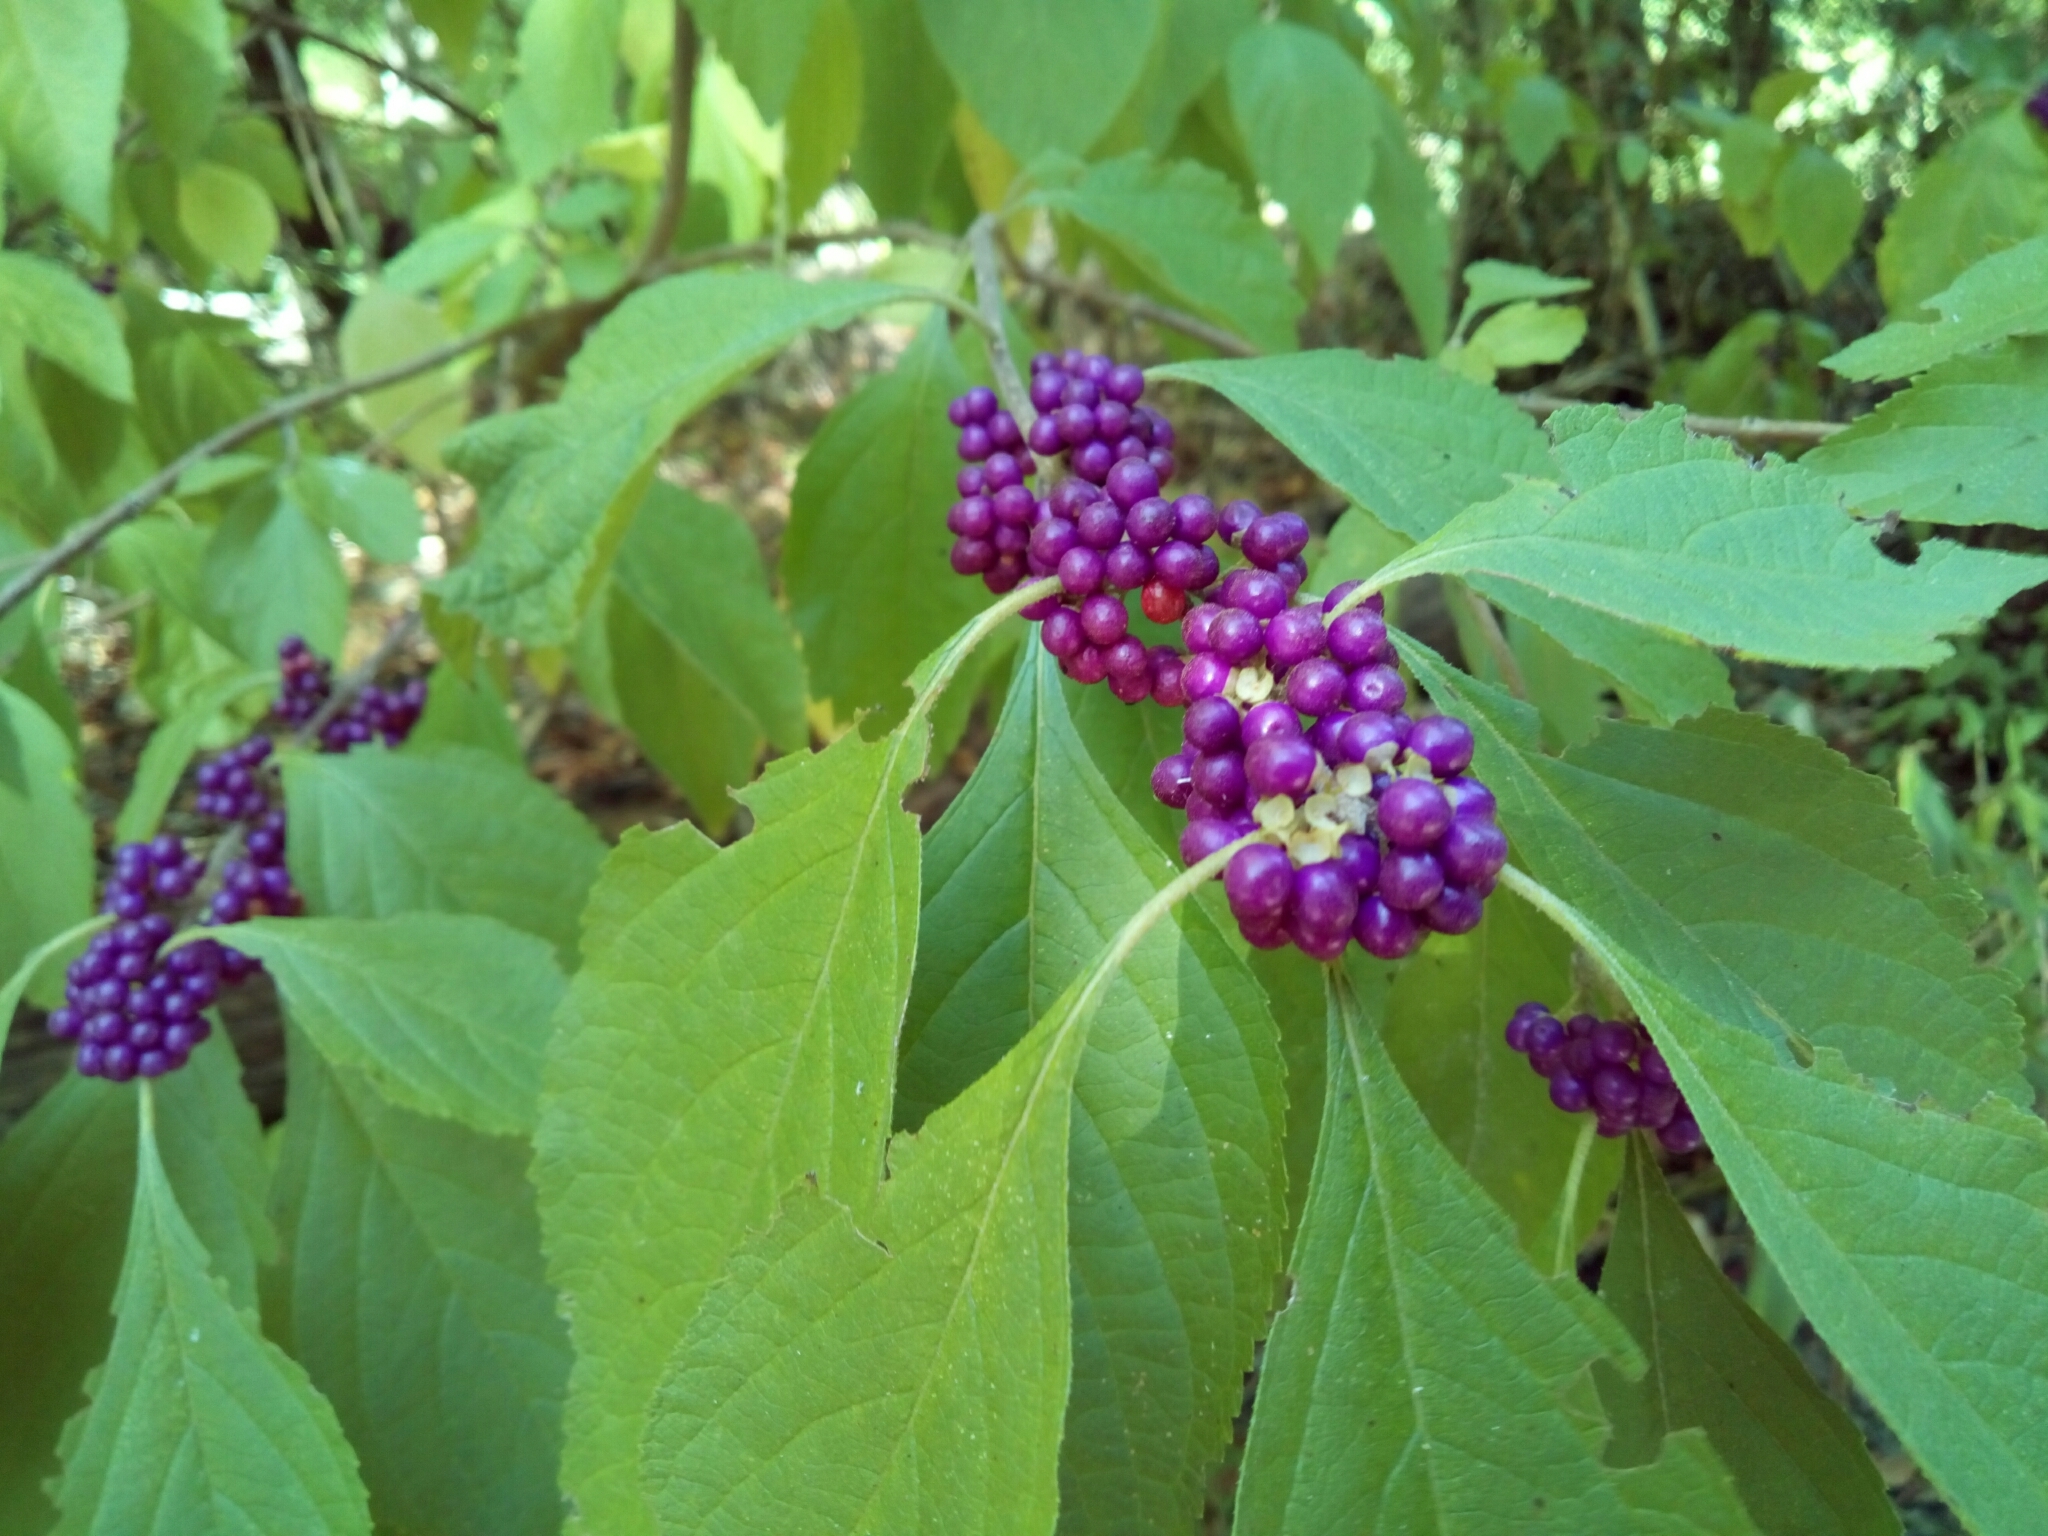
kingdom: Plantae
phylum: Tracheophyta
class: Magnoliopsida
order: Lamiales
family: Lamiaceae
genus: Callicarpa
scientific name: Callicarpa americana
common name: American beautyberry
